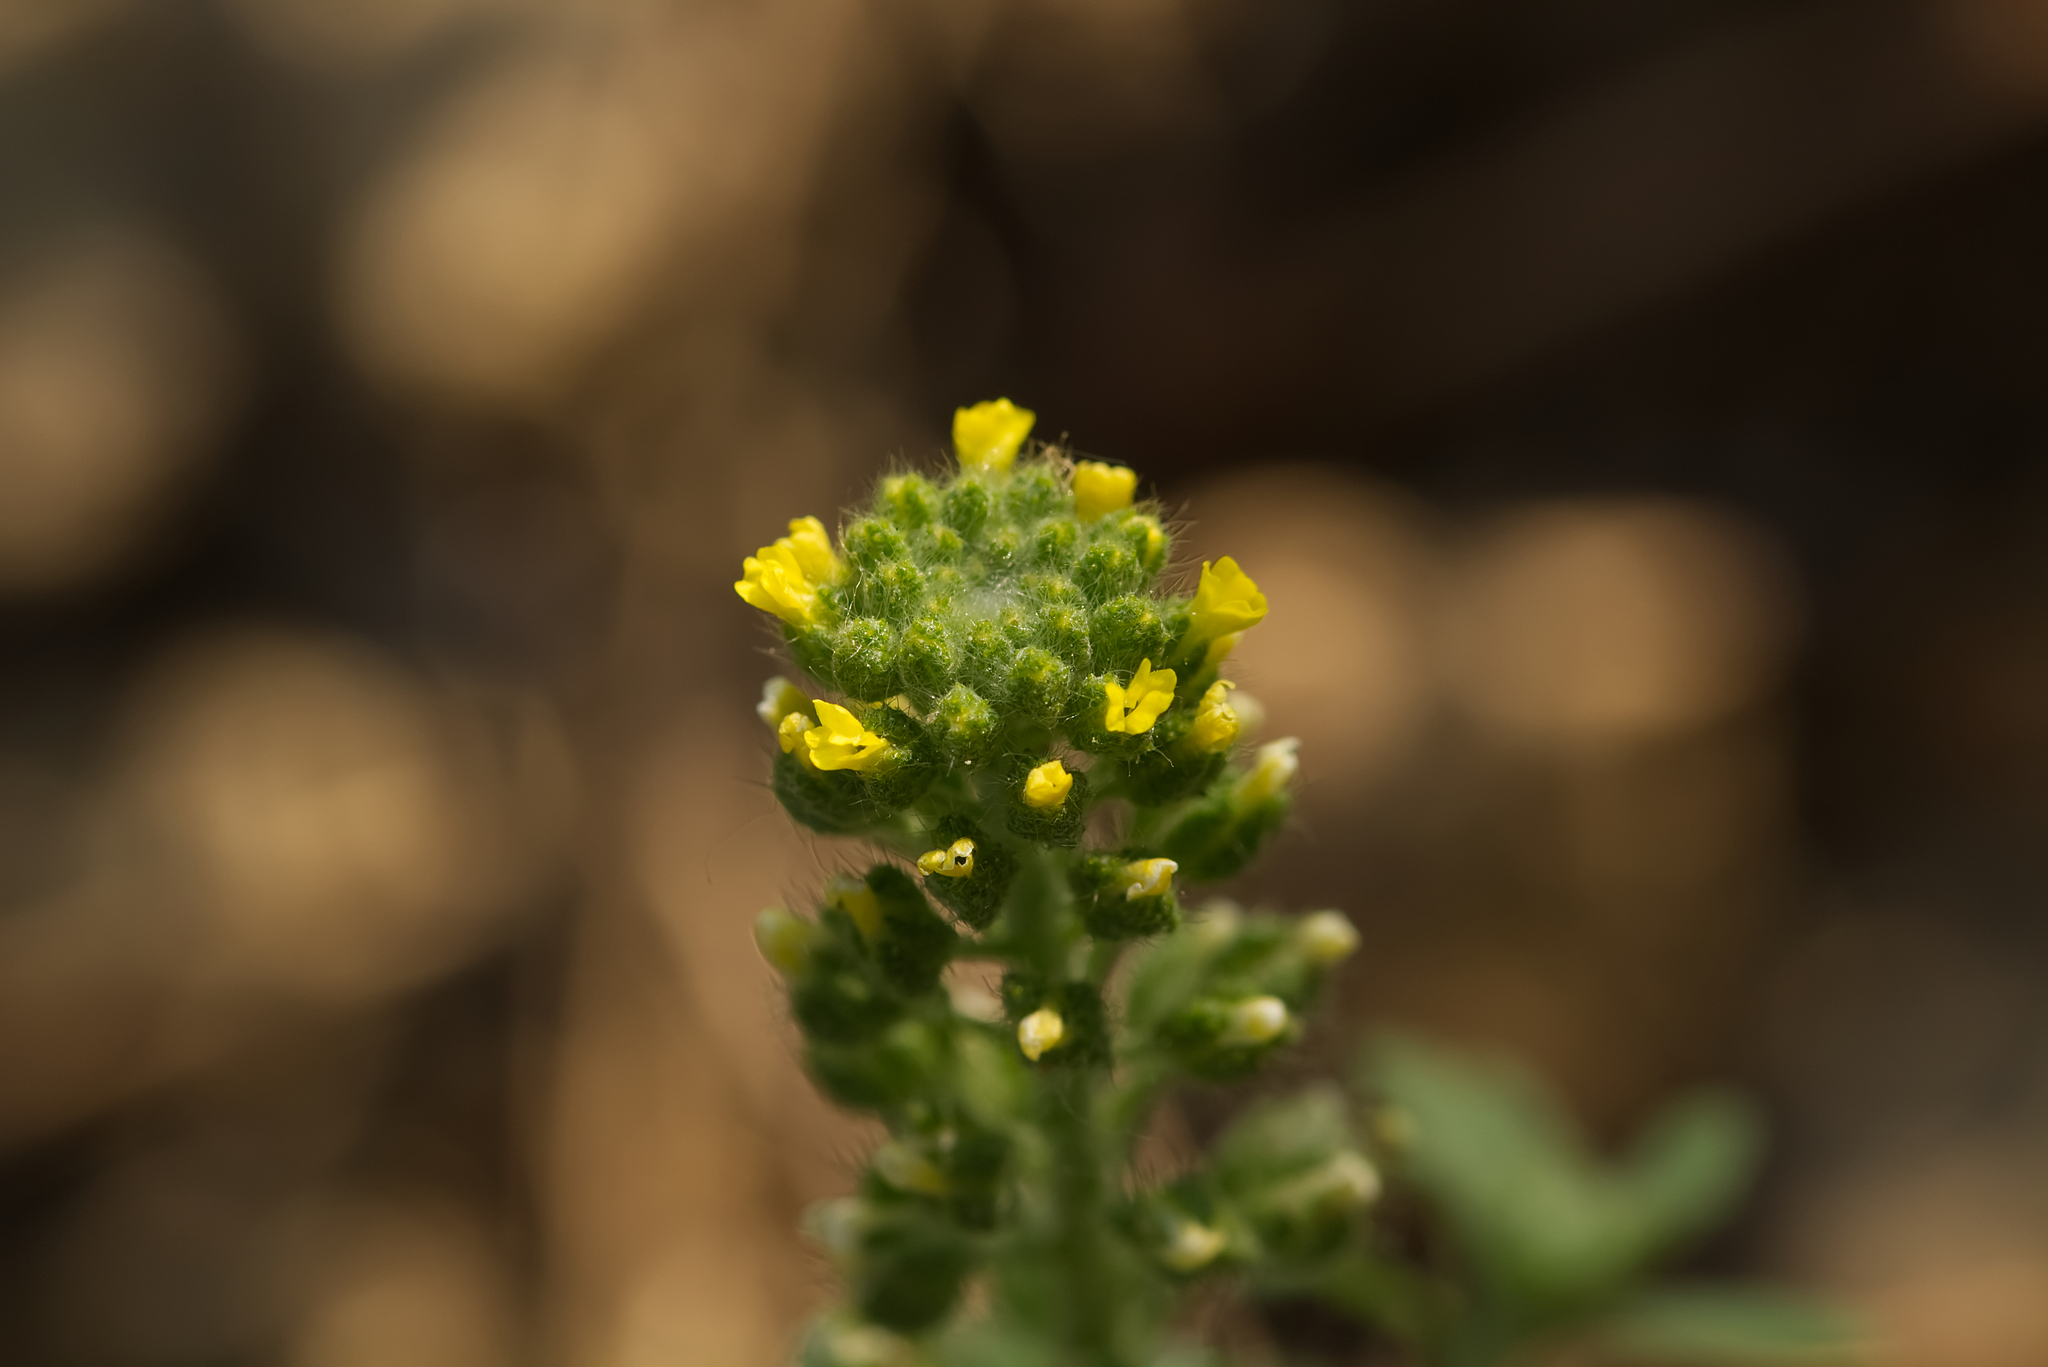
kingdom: Plantae
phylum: Tracheophyta
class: Magnoliopsida
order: Brassicales
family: Brassicaceae
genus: Alyssum
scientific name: Alyssum alyssoides
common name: Small alison
